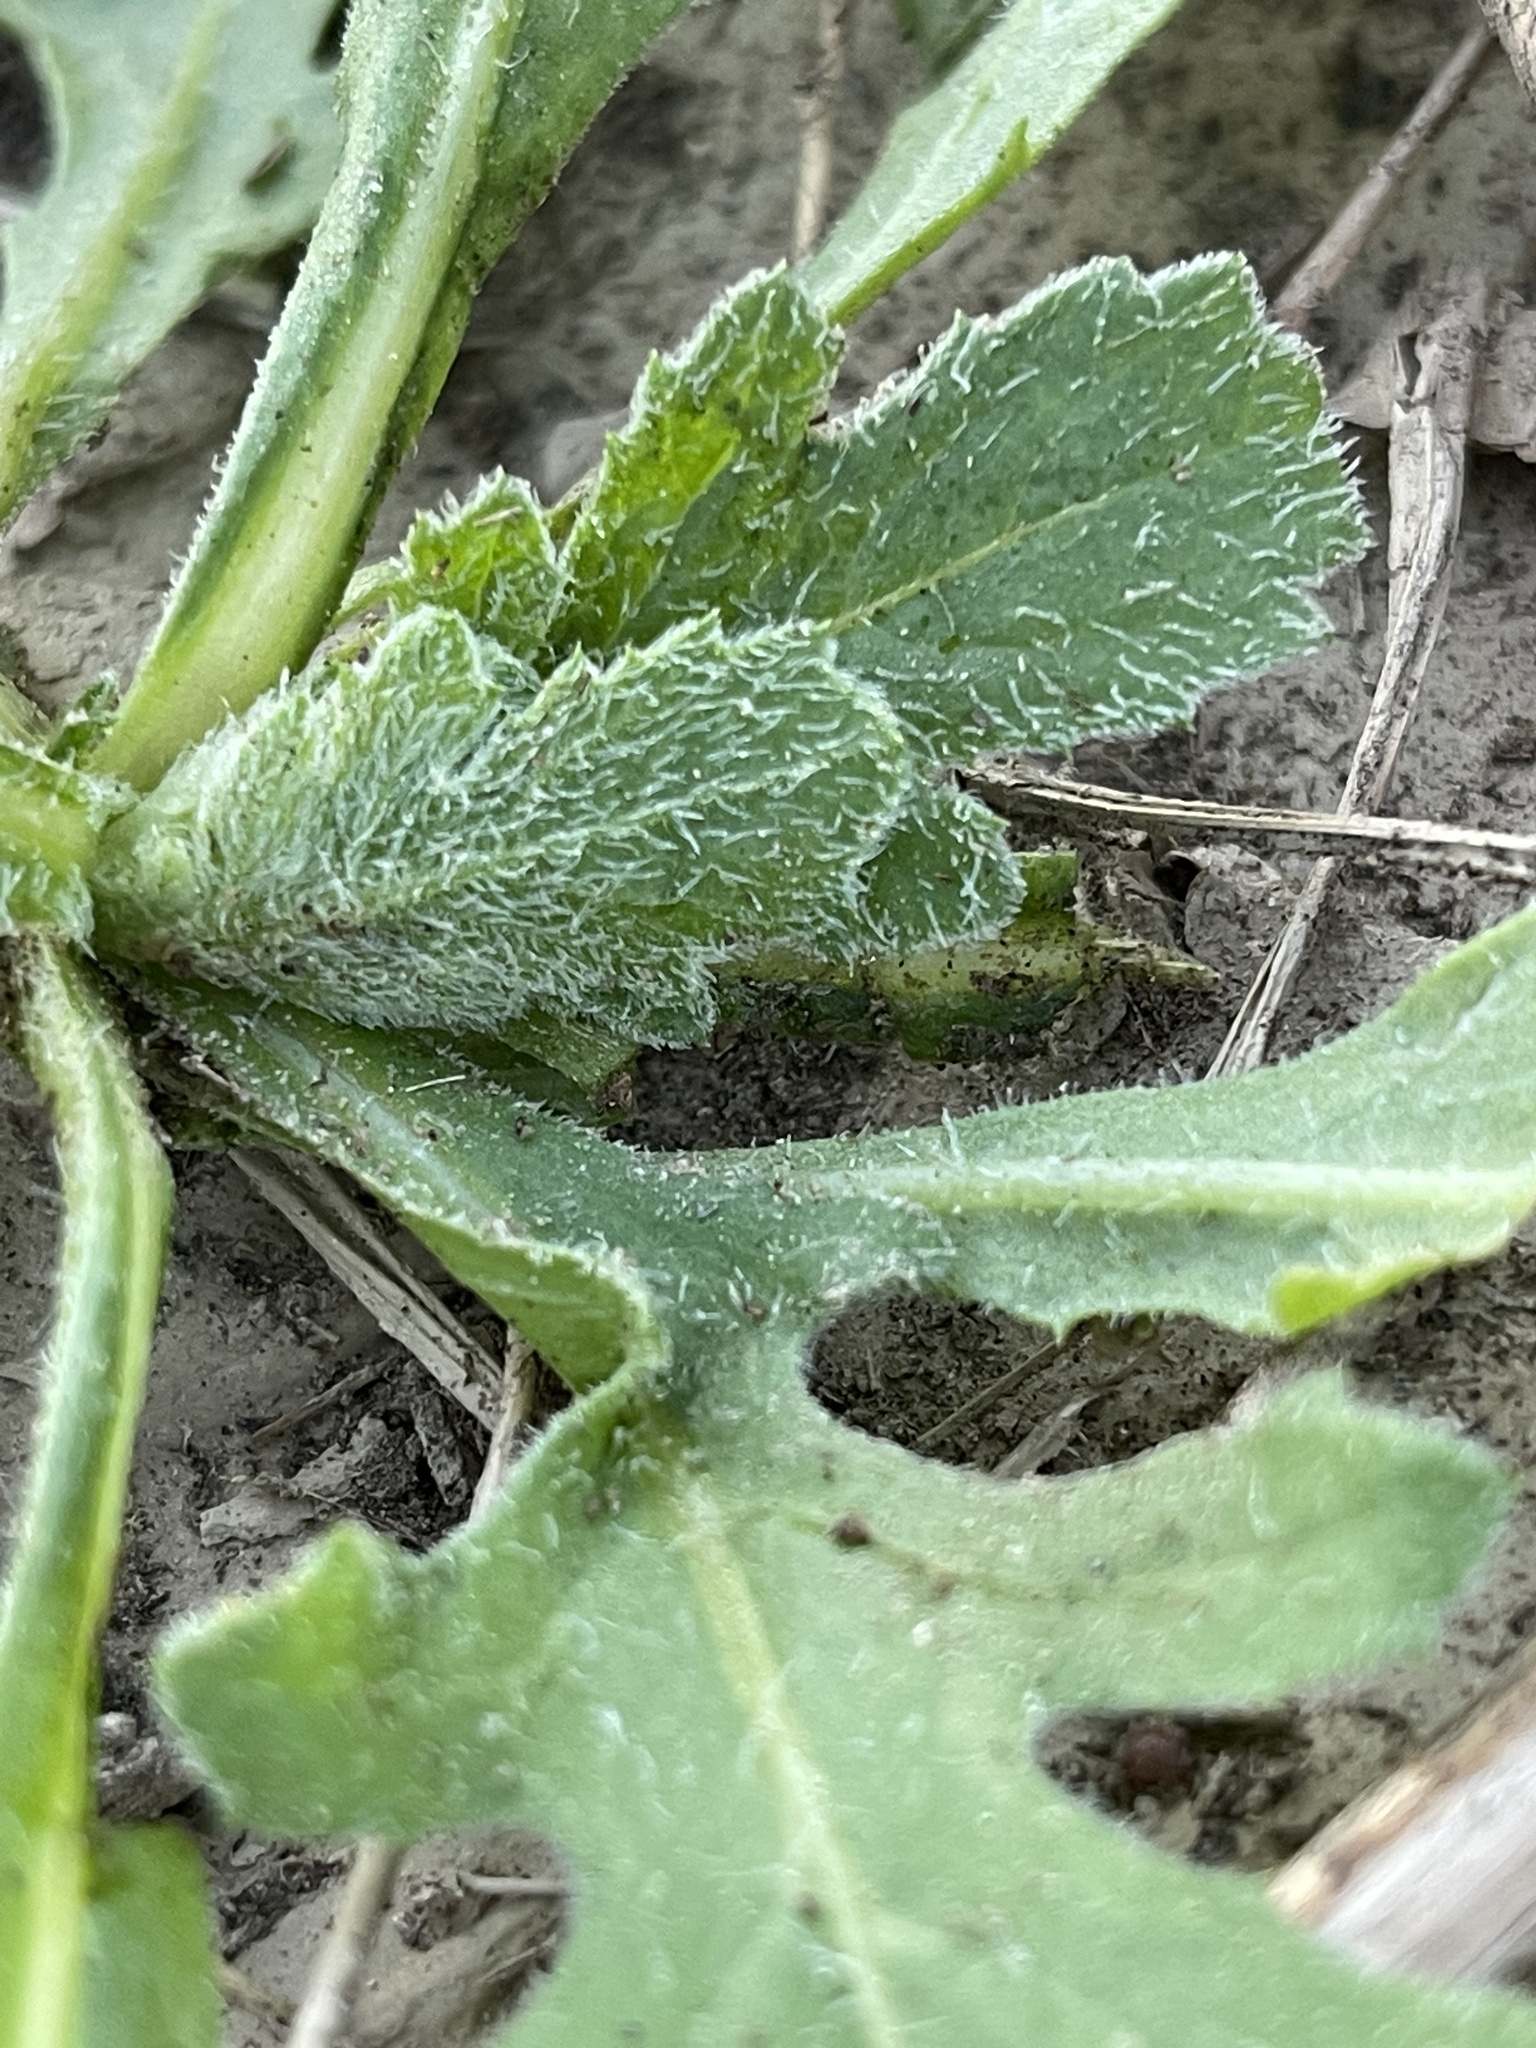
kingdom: Plantae
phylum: Tracheophyta
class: Magnoliopsida
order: Asterales
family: Asteraceae
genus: Volutaria
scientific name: Volutaria tubuliflora
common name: Desert knapweed
